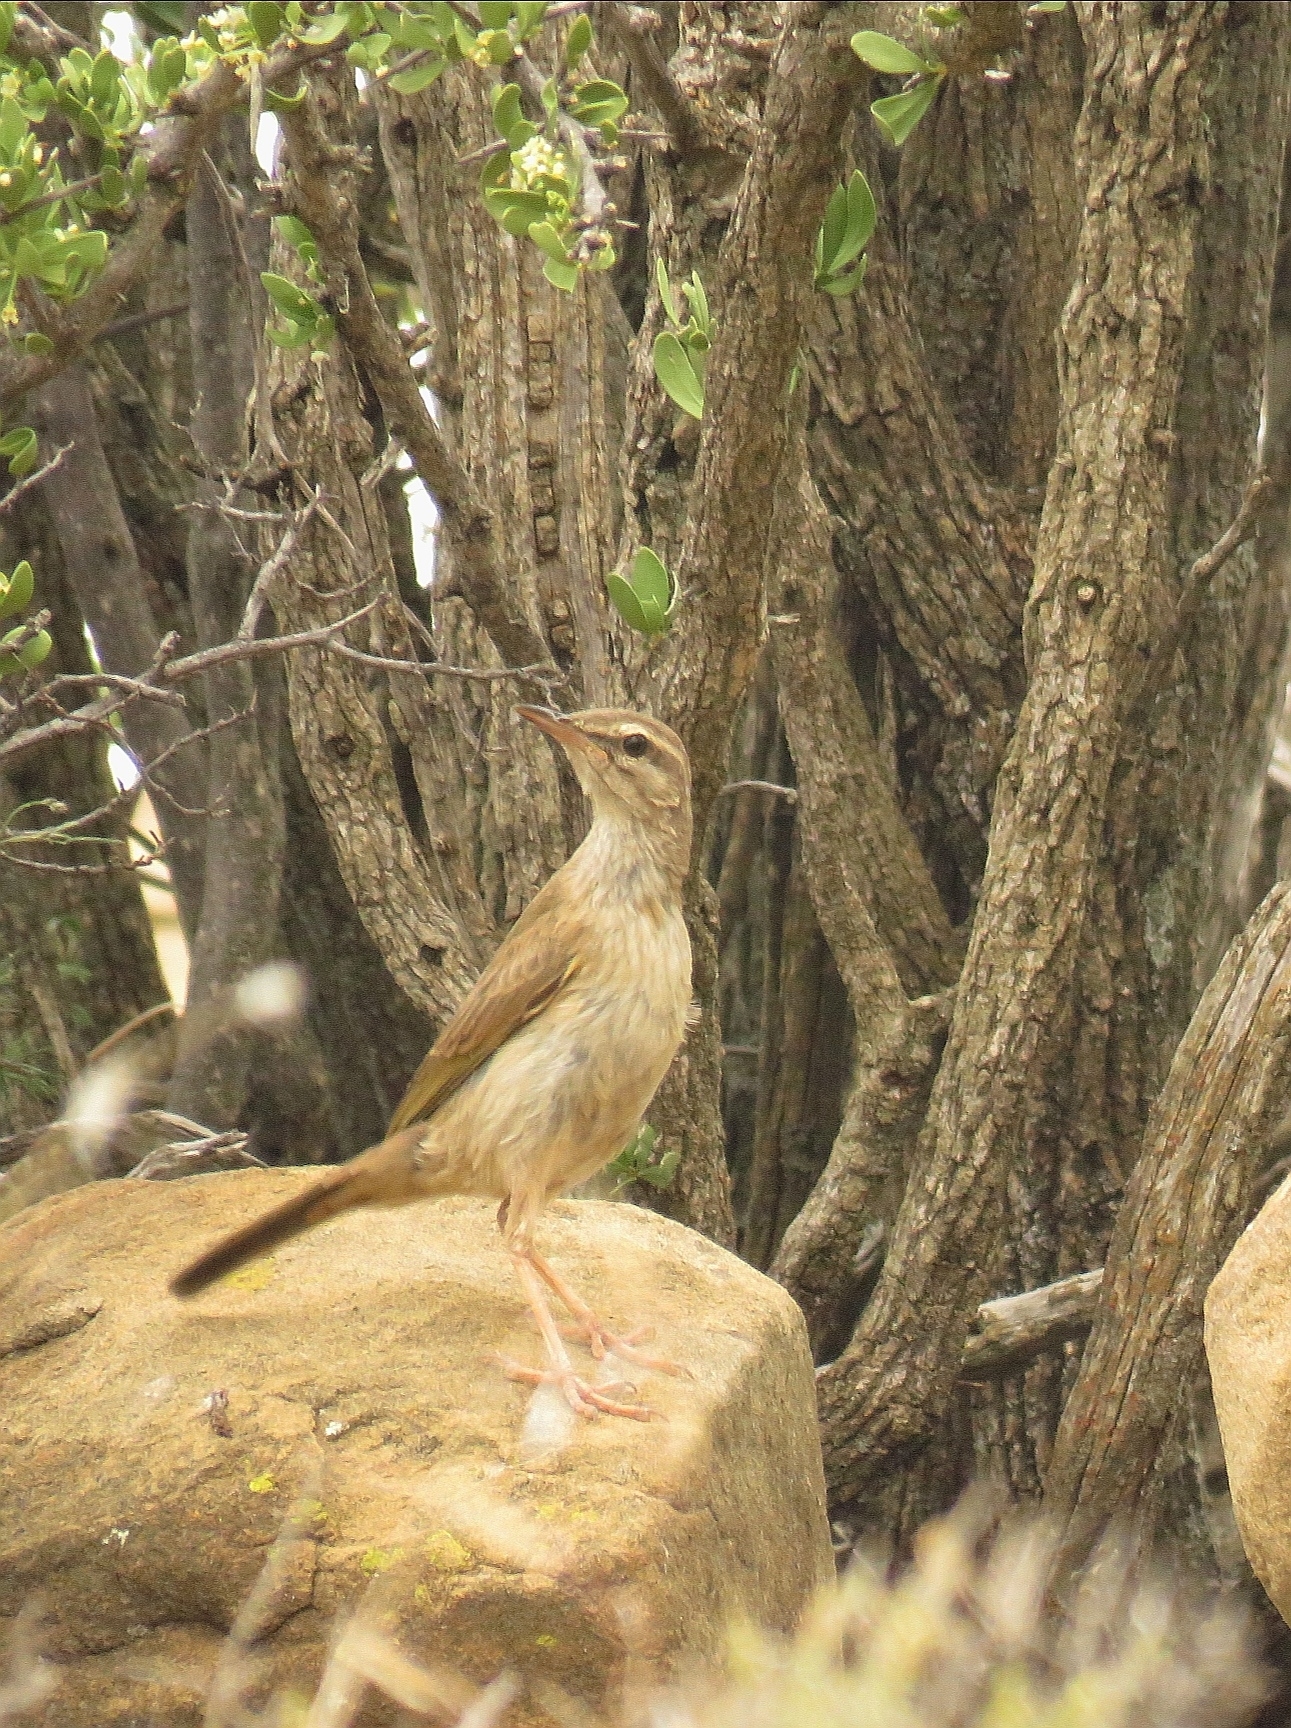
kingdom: Animalia
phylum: Chordata
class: Aves
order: Passeriformes
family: Motacillidae
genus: Anthus
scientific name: Anthus crenatus
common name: African rock pipit
